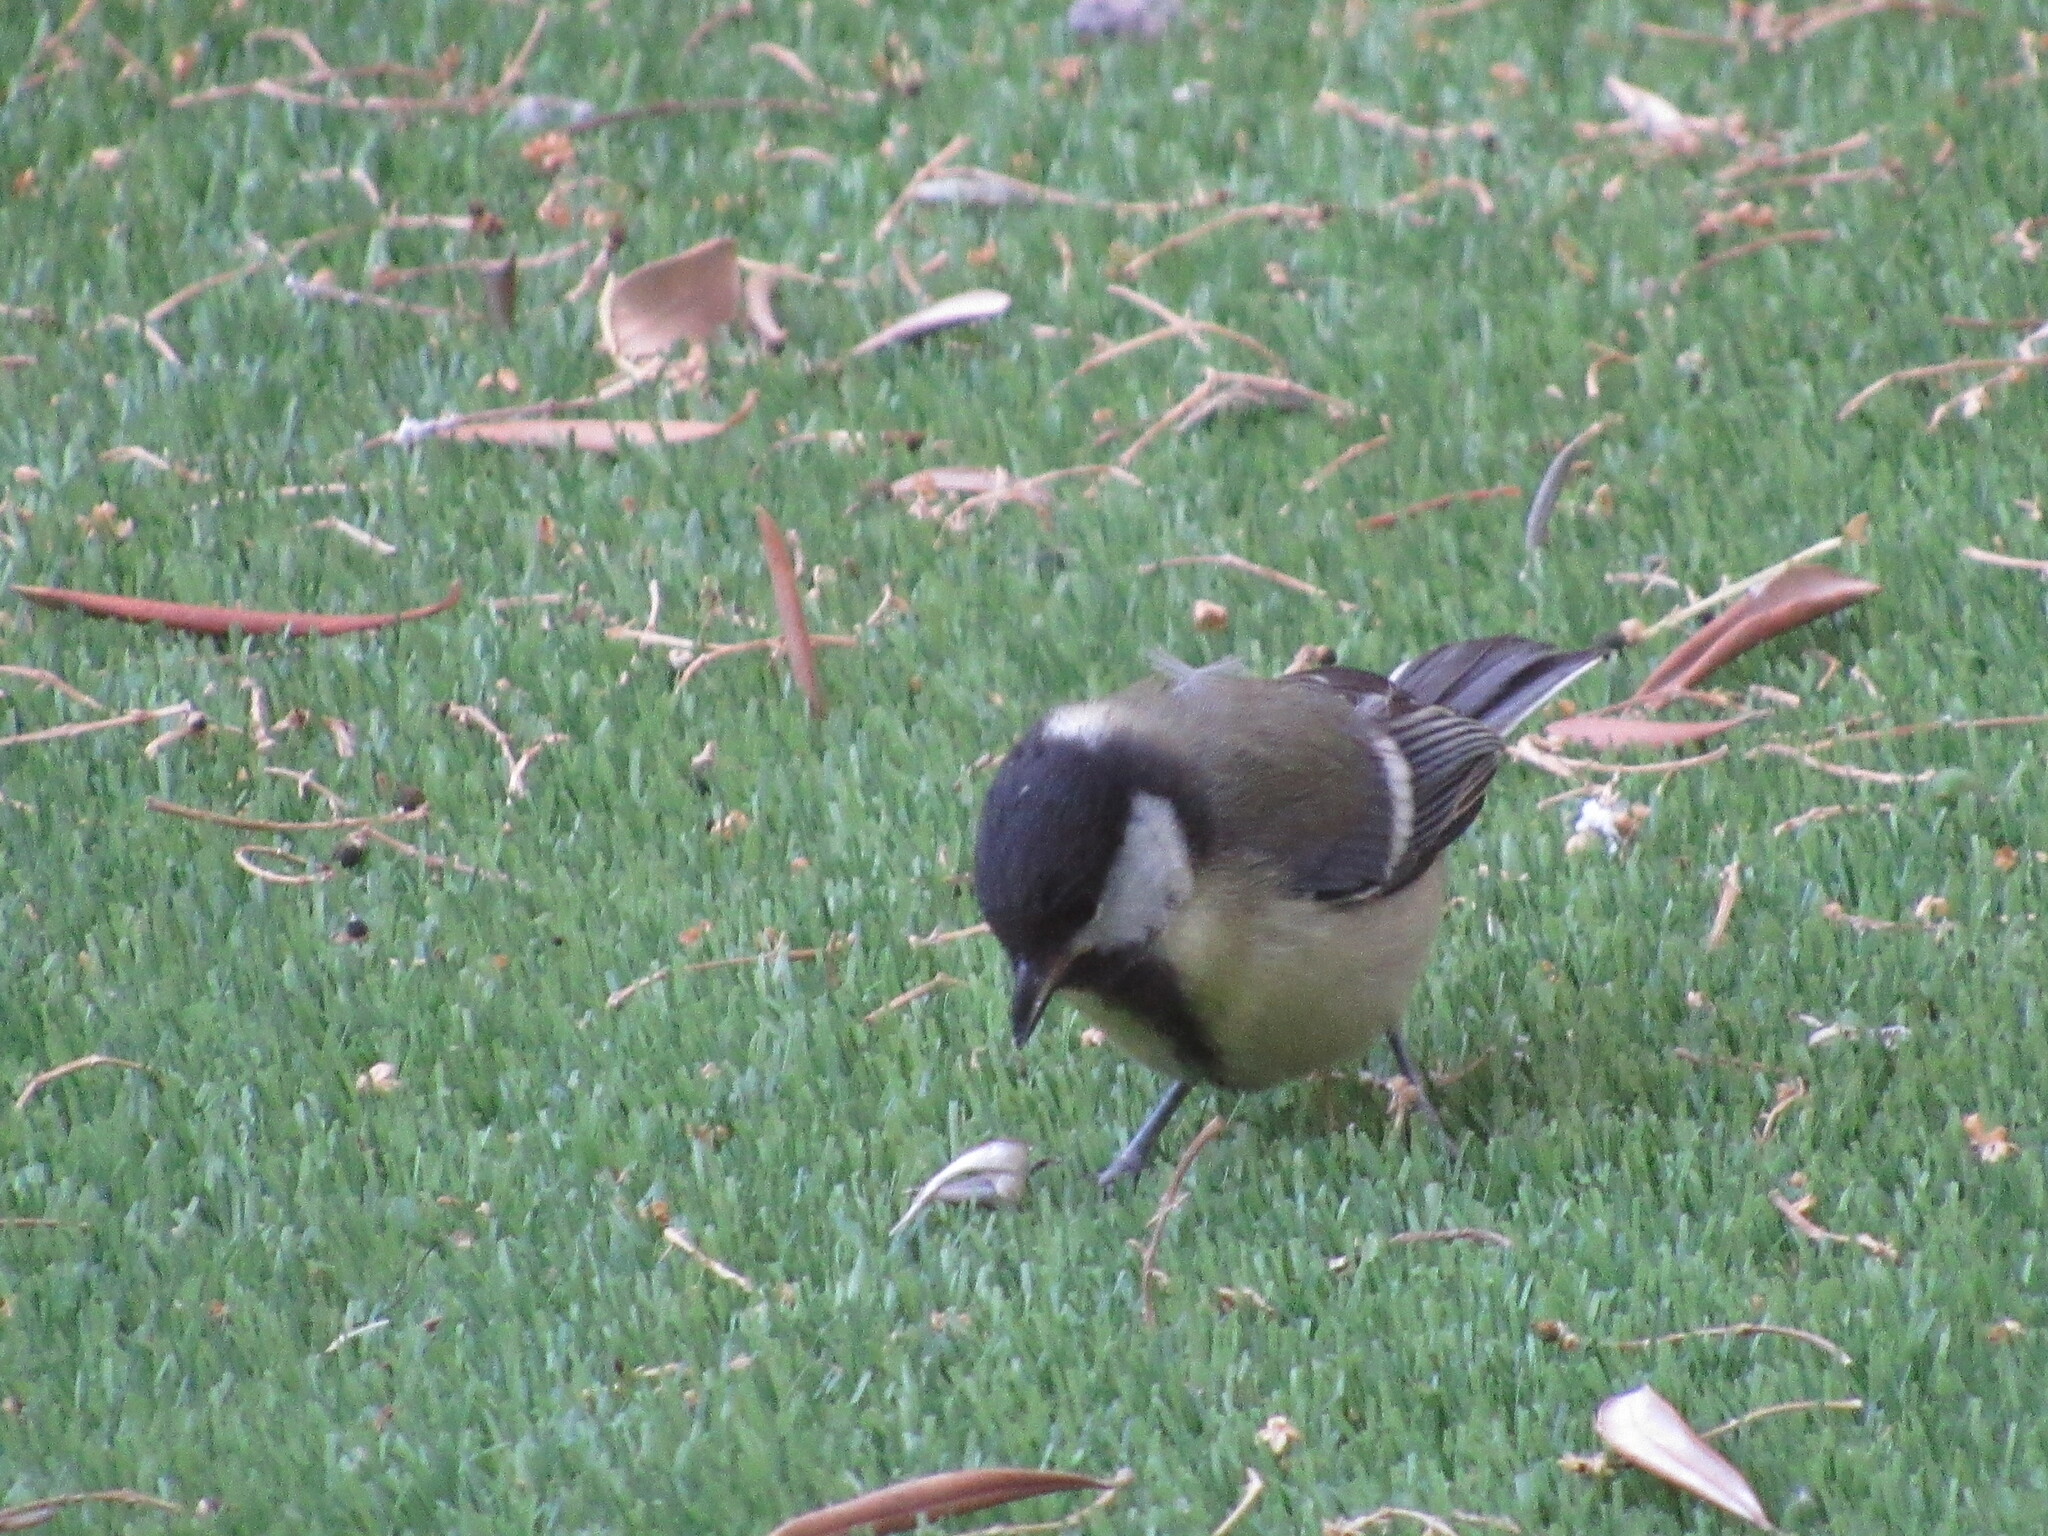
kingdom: Animalia
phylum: Chordata
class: Aves
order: Passeriformes
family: Paridae
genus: Parus
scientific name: Parus major
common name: Great tit
